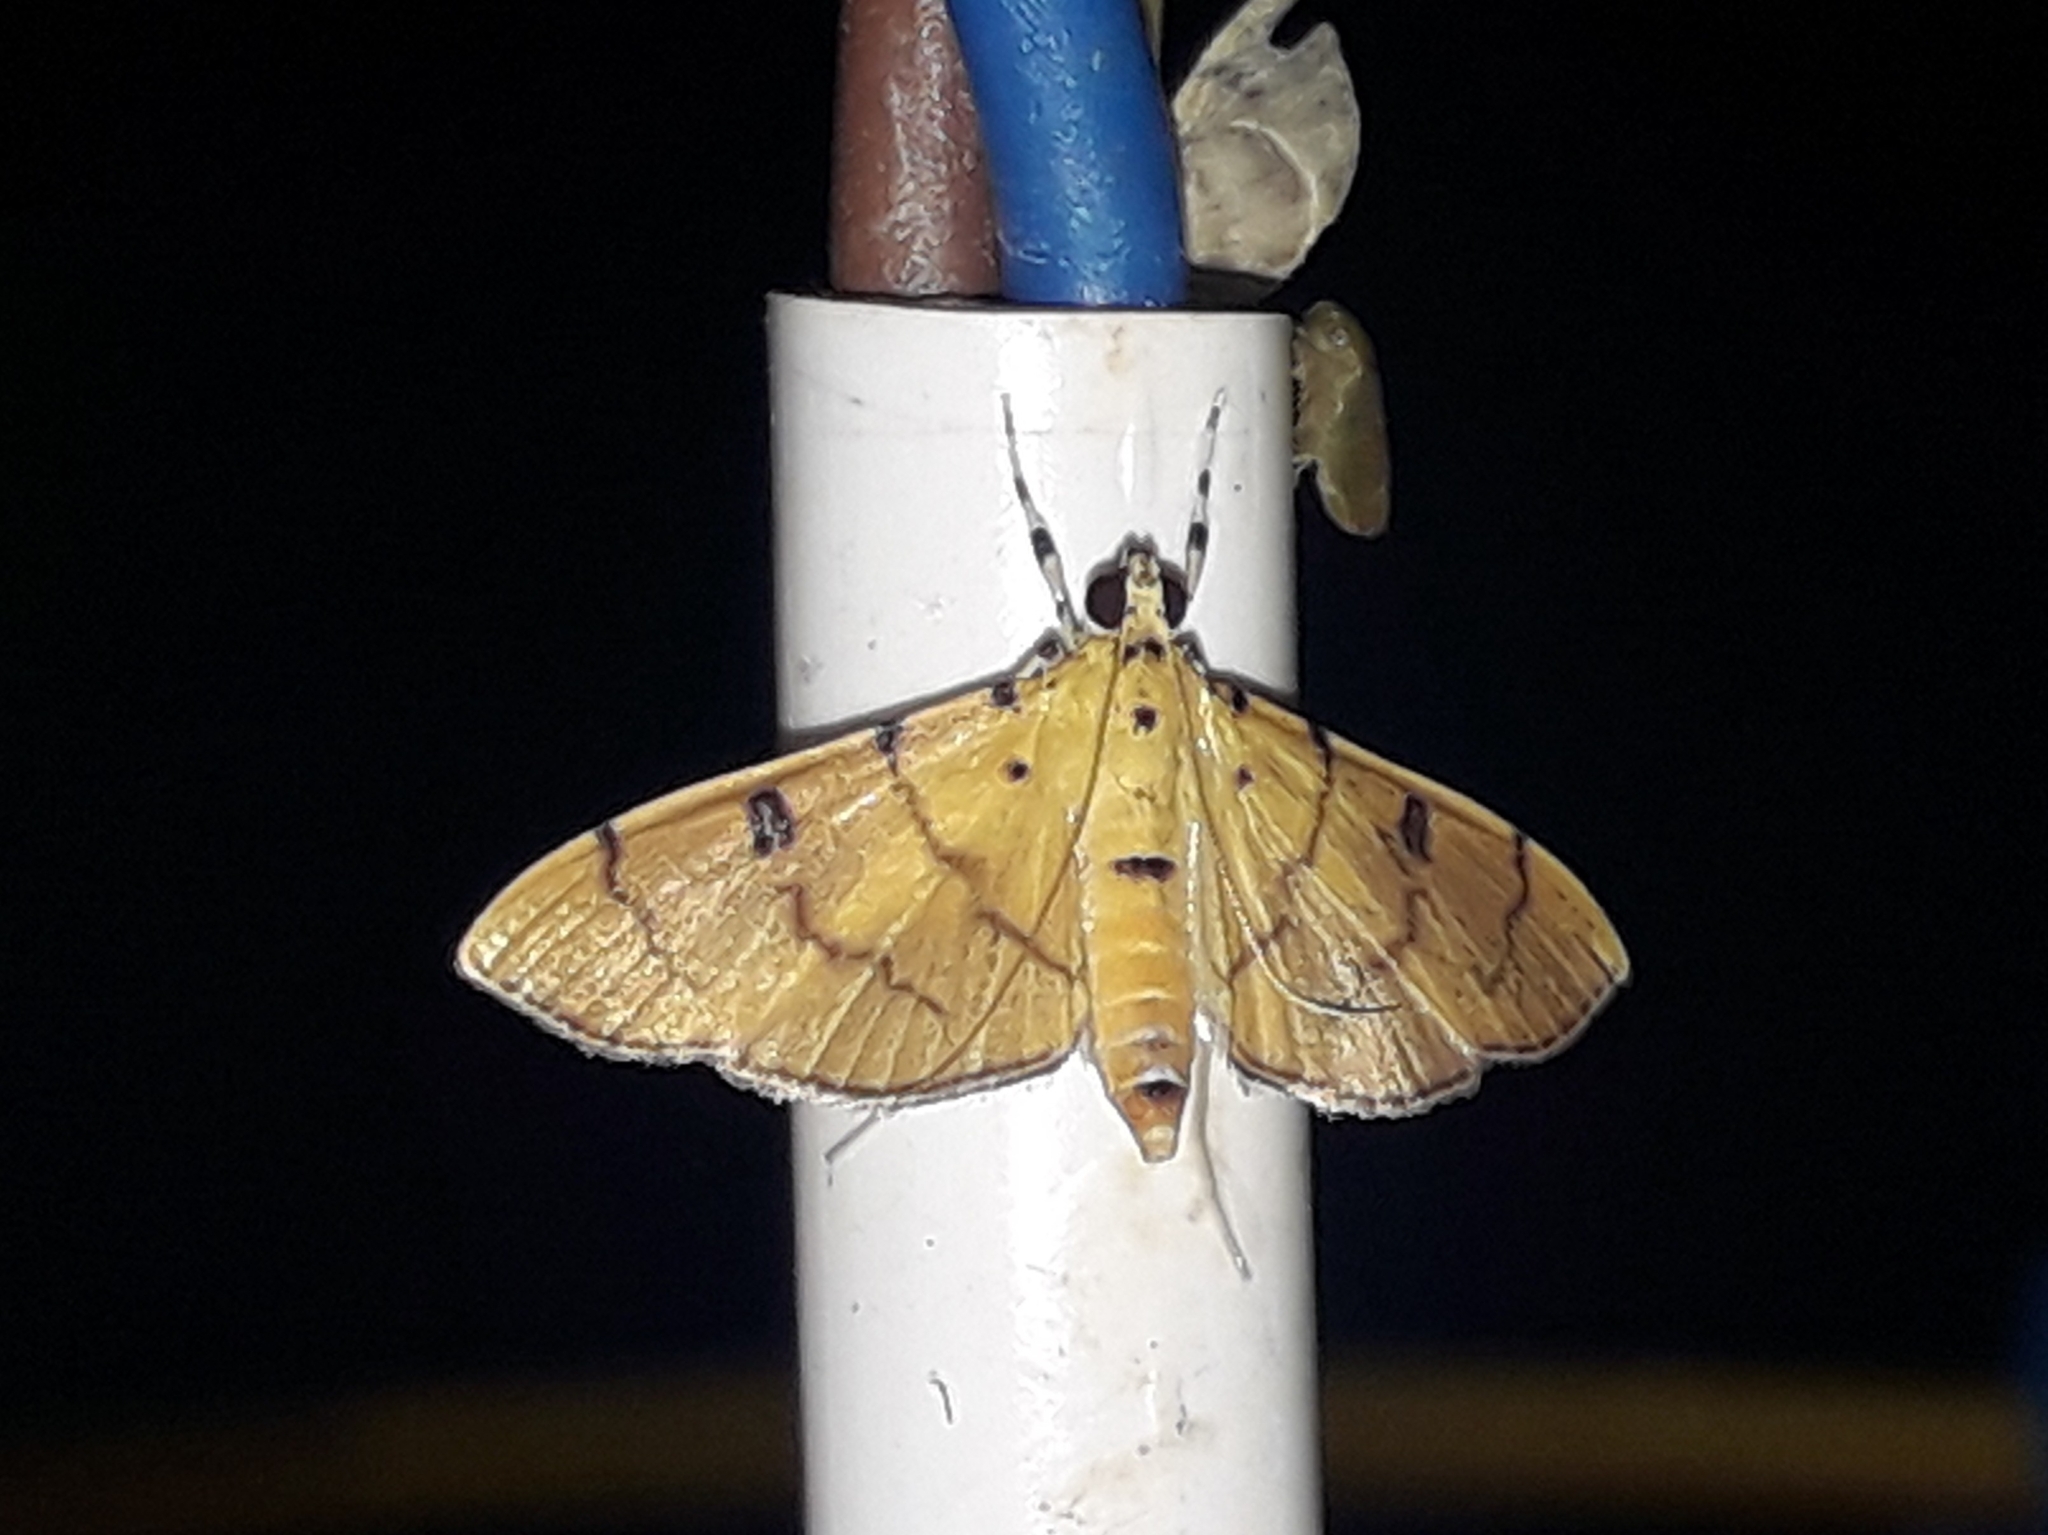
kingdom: Animalia
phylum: Arthropoda
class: Insecta
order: Lepidoptera
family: Crambidae
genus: Lygropia
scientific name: Lygropia cernalis
